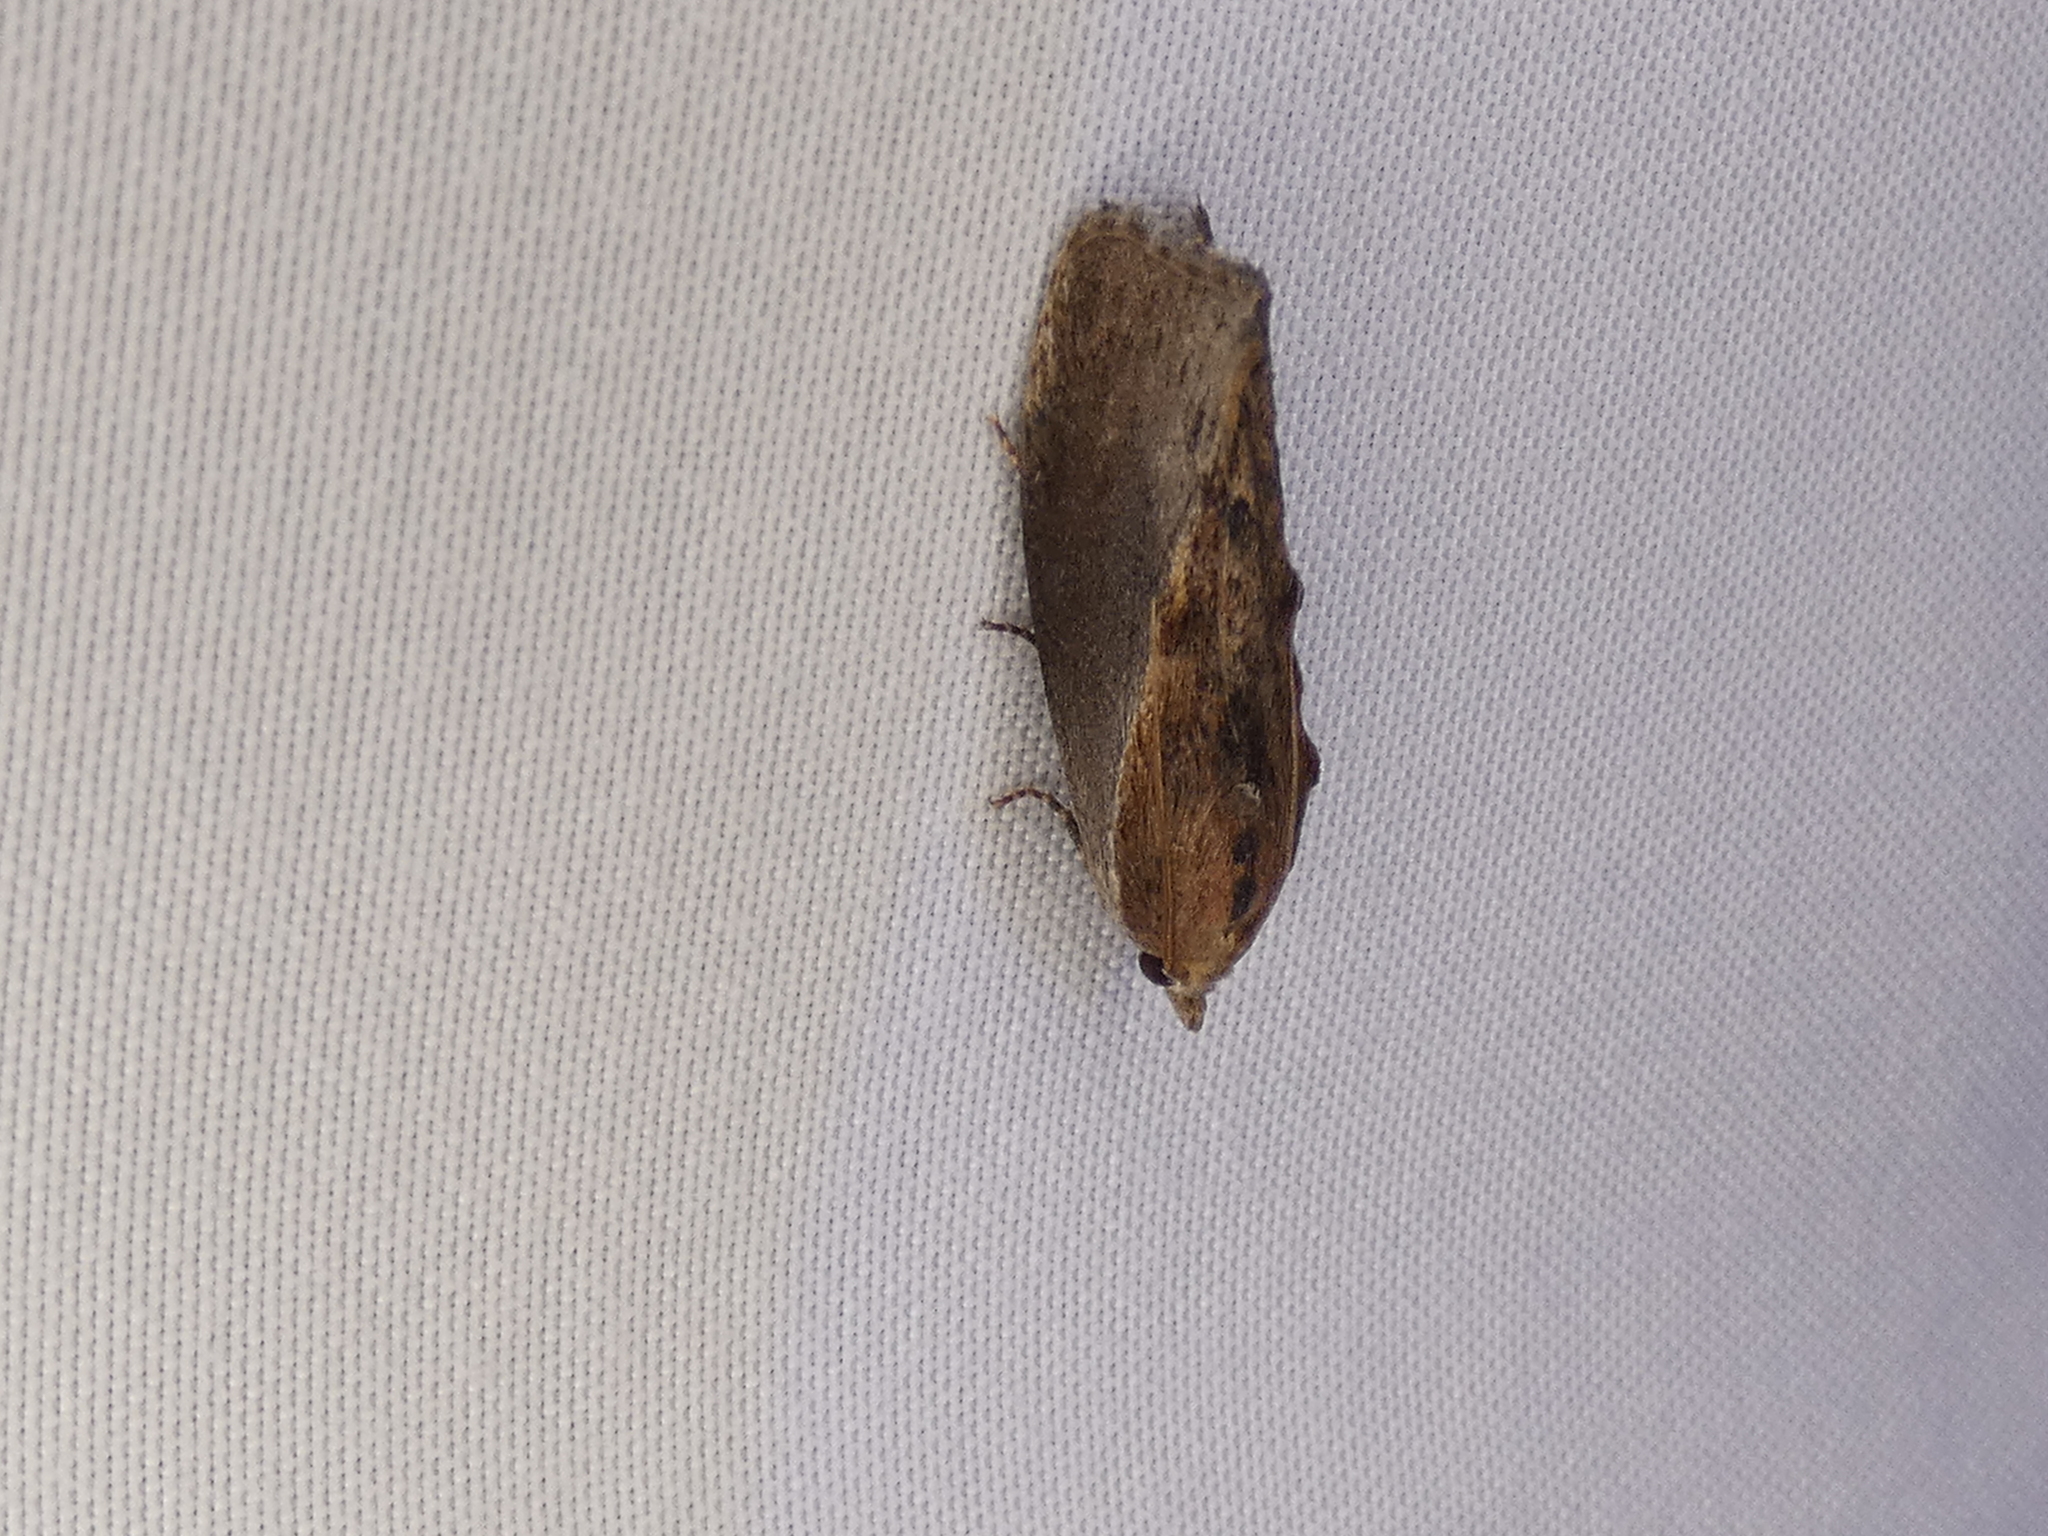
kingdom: Animalia
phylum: Arthropoda
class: Insecta
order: Lepidoptera
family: Pyralidae
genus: Galleria
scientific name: Galleria mellonella
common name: Greater wax moth
